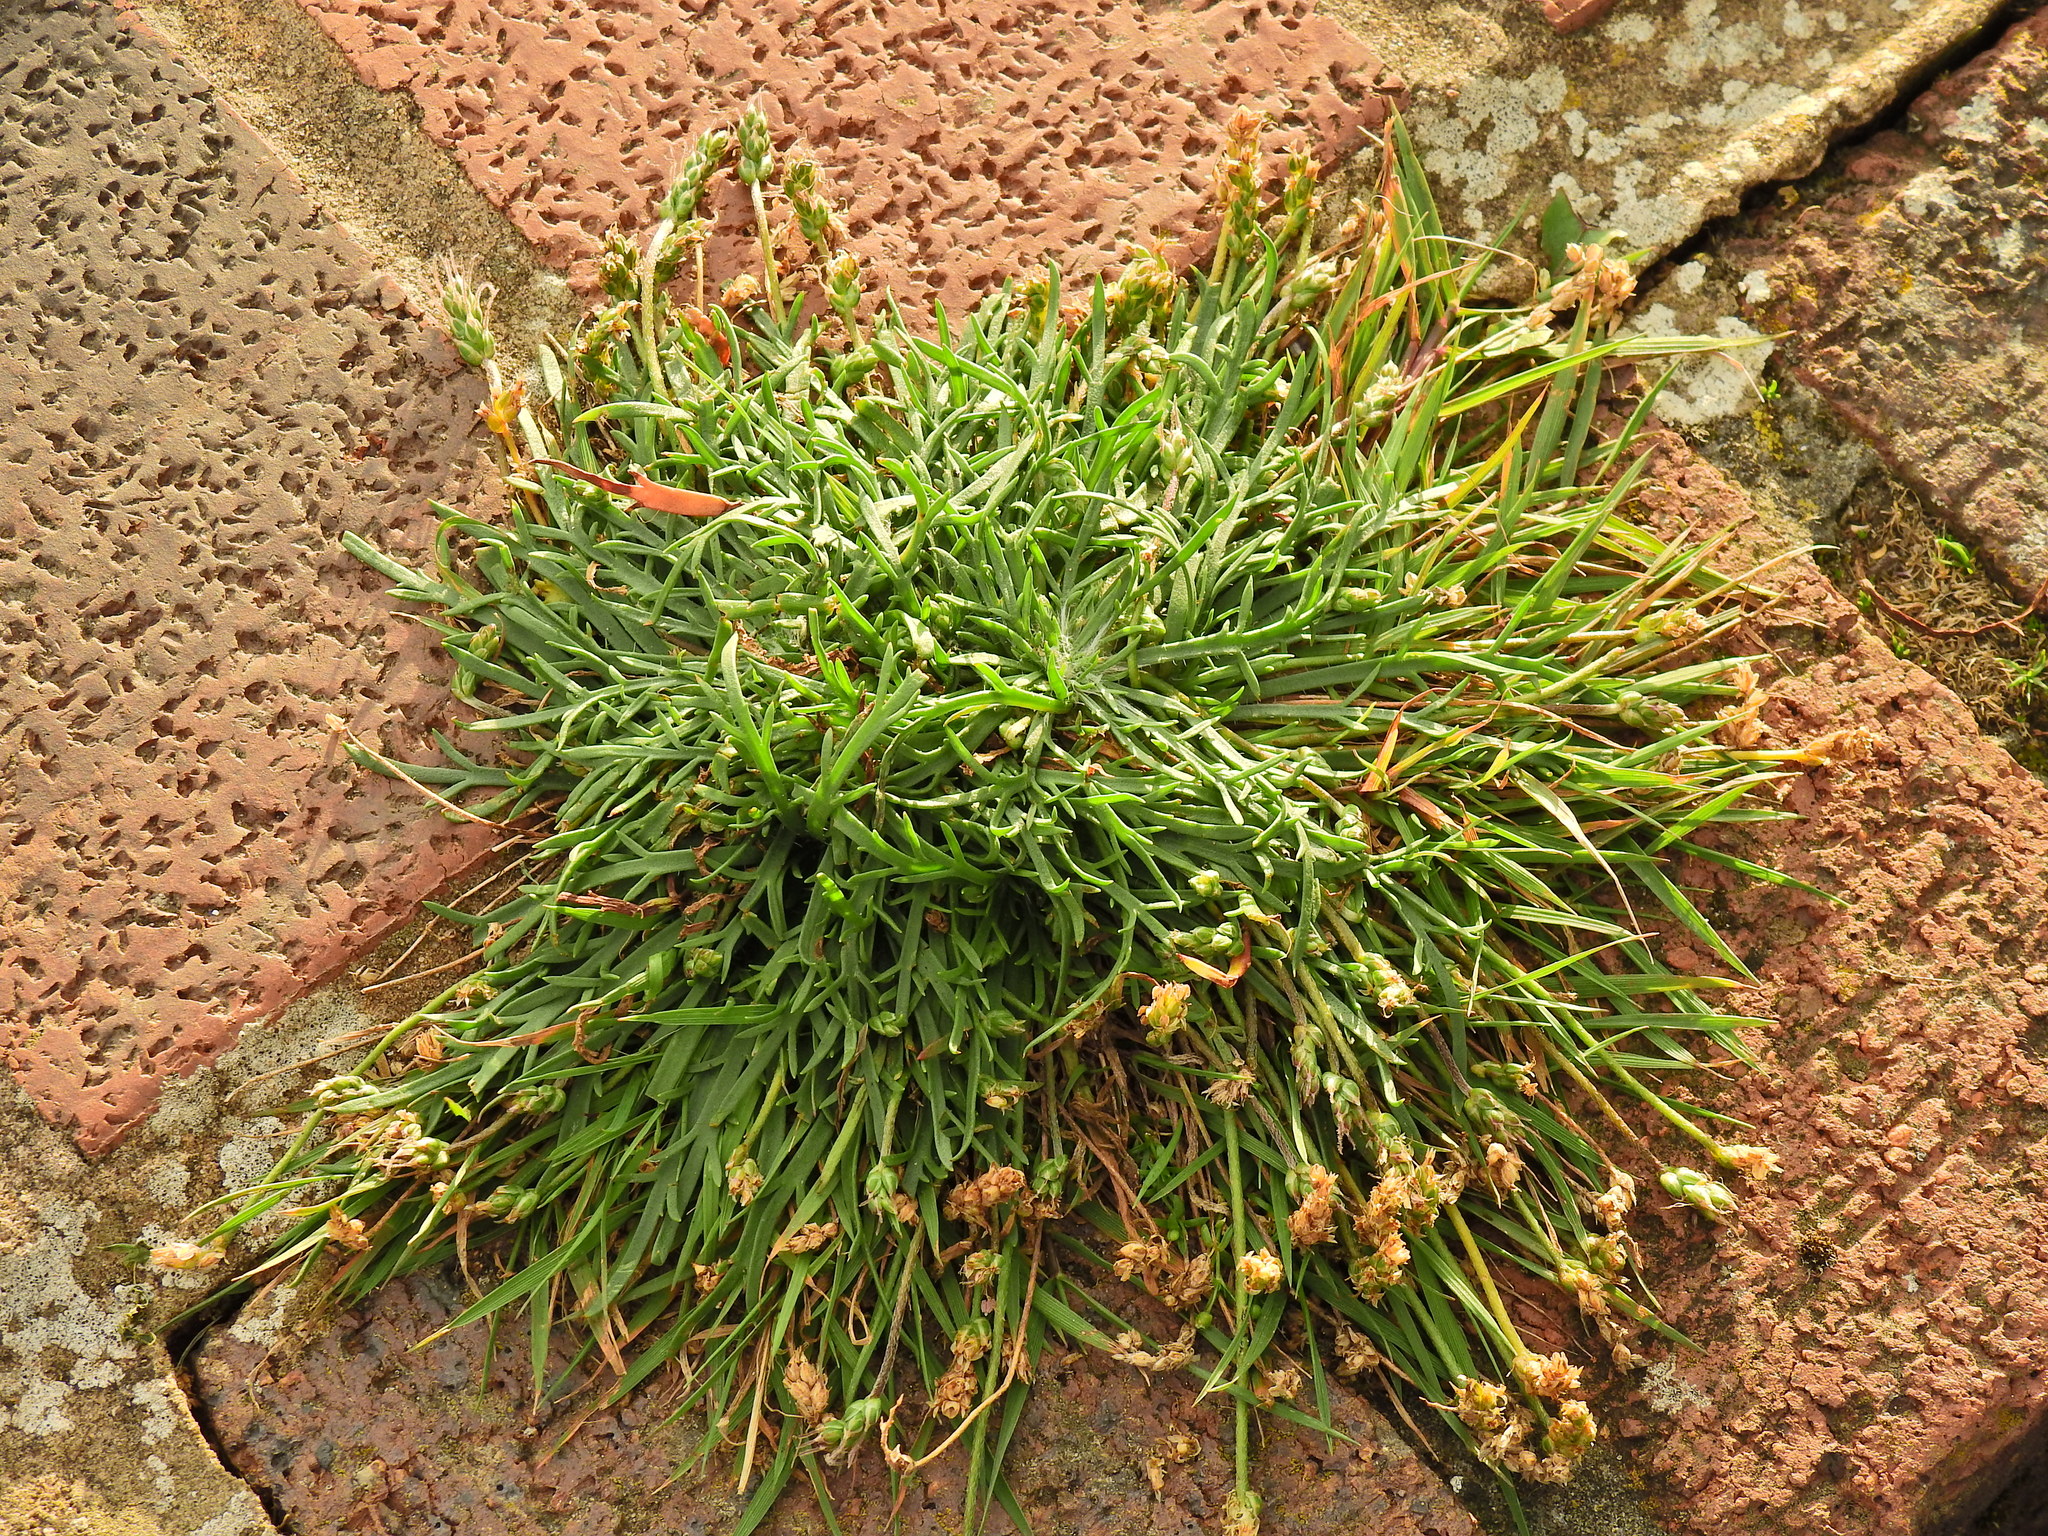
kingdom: Plantae
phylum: Tracheophyta
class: Magnoliopsida
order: Lamiales
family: Plantaginaceae
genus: Plantago
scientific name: Plantago coronopus
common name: Buck's-horn plantain
